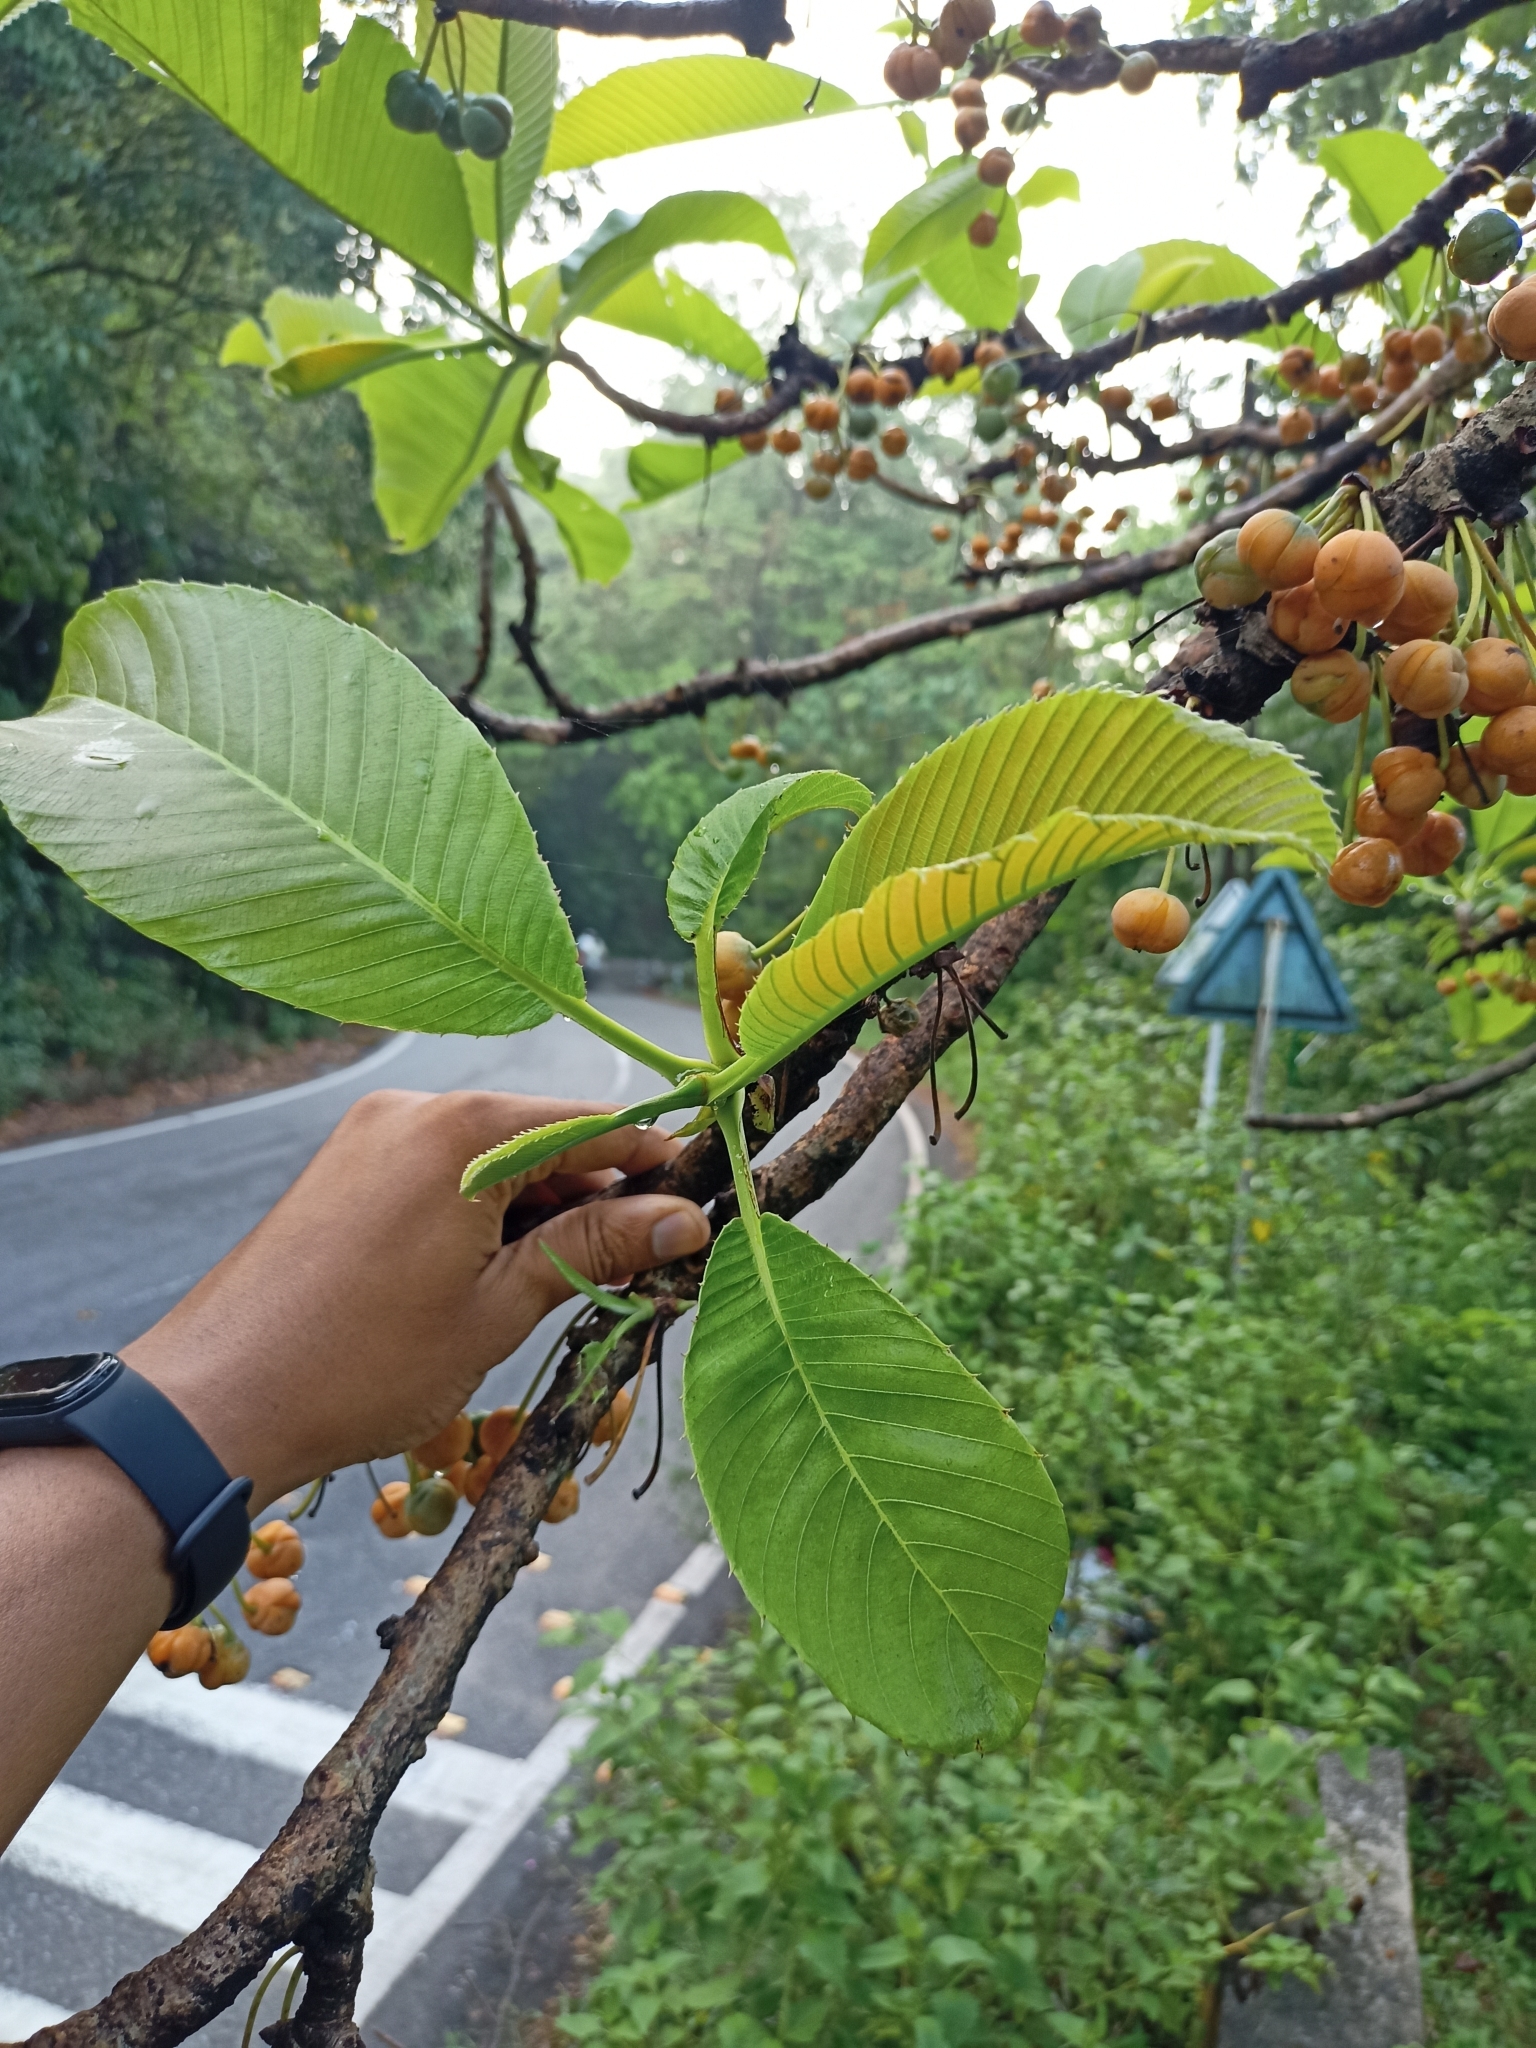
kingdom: Plantae
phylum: Tracheophyta
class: Magnoliopsida
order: Dilleniales
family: Dilleniaceae
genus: Dillenia
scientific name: Dillenia pentagyna
